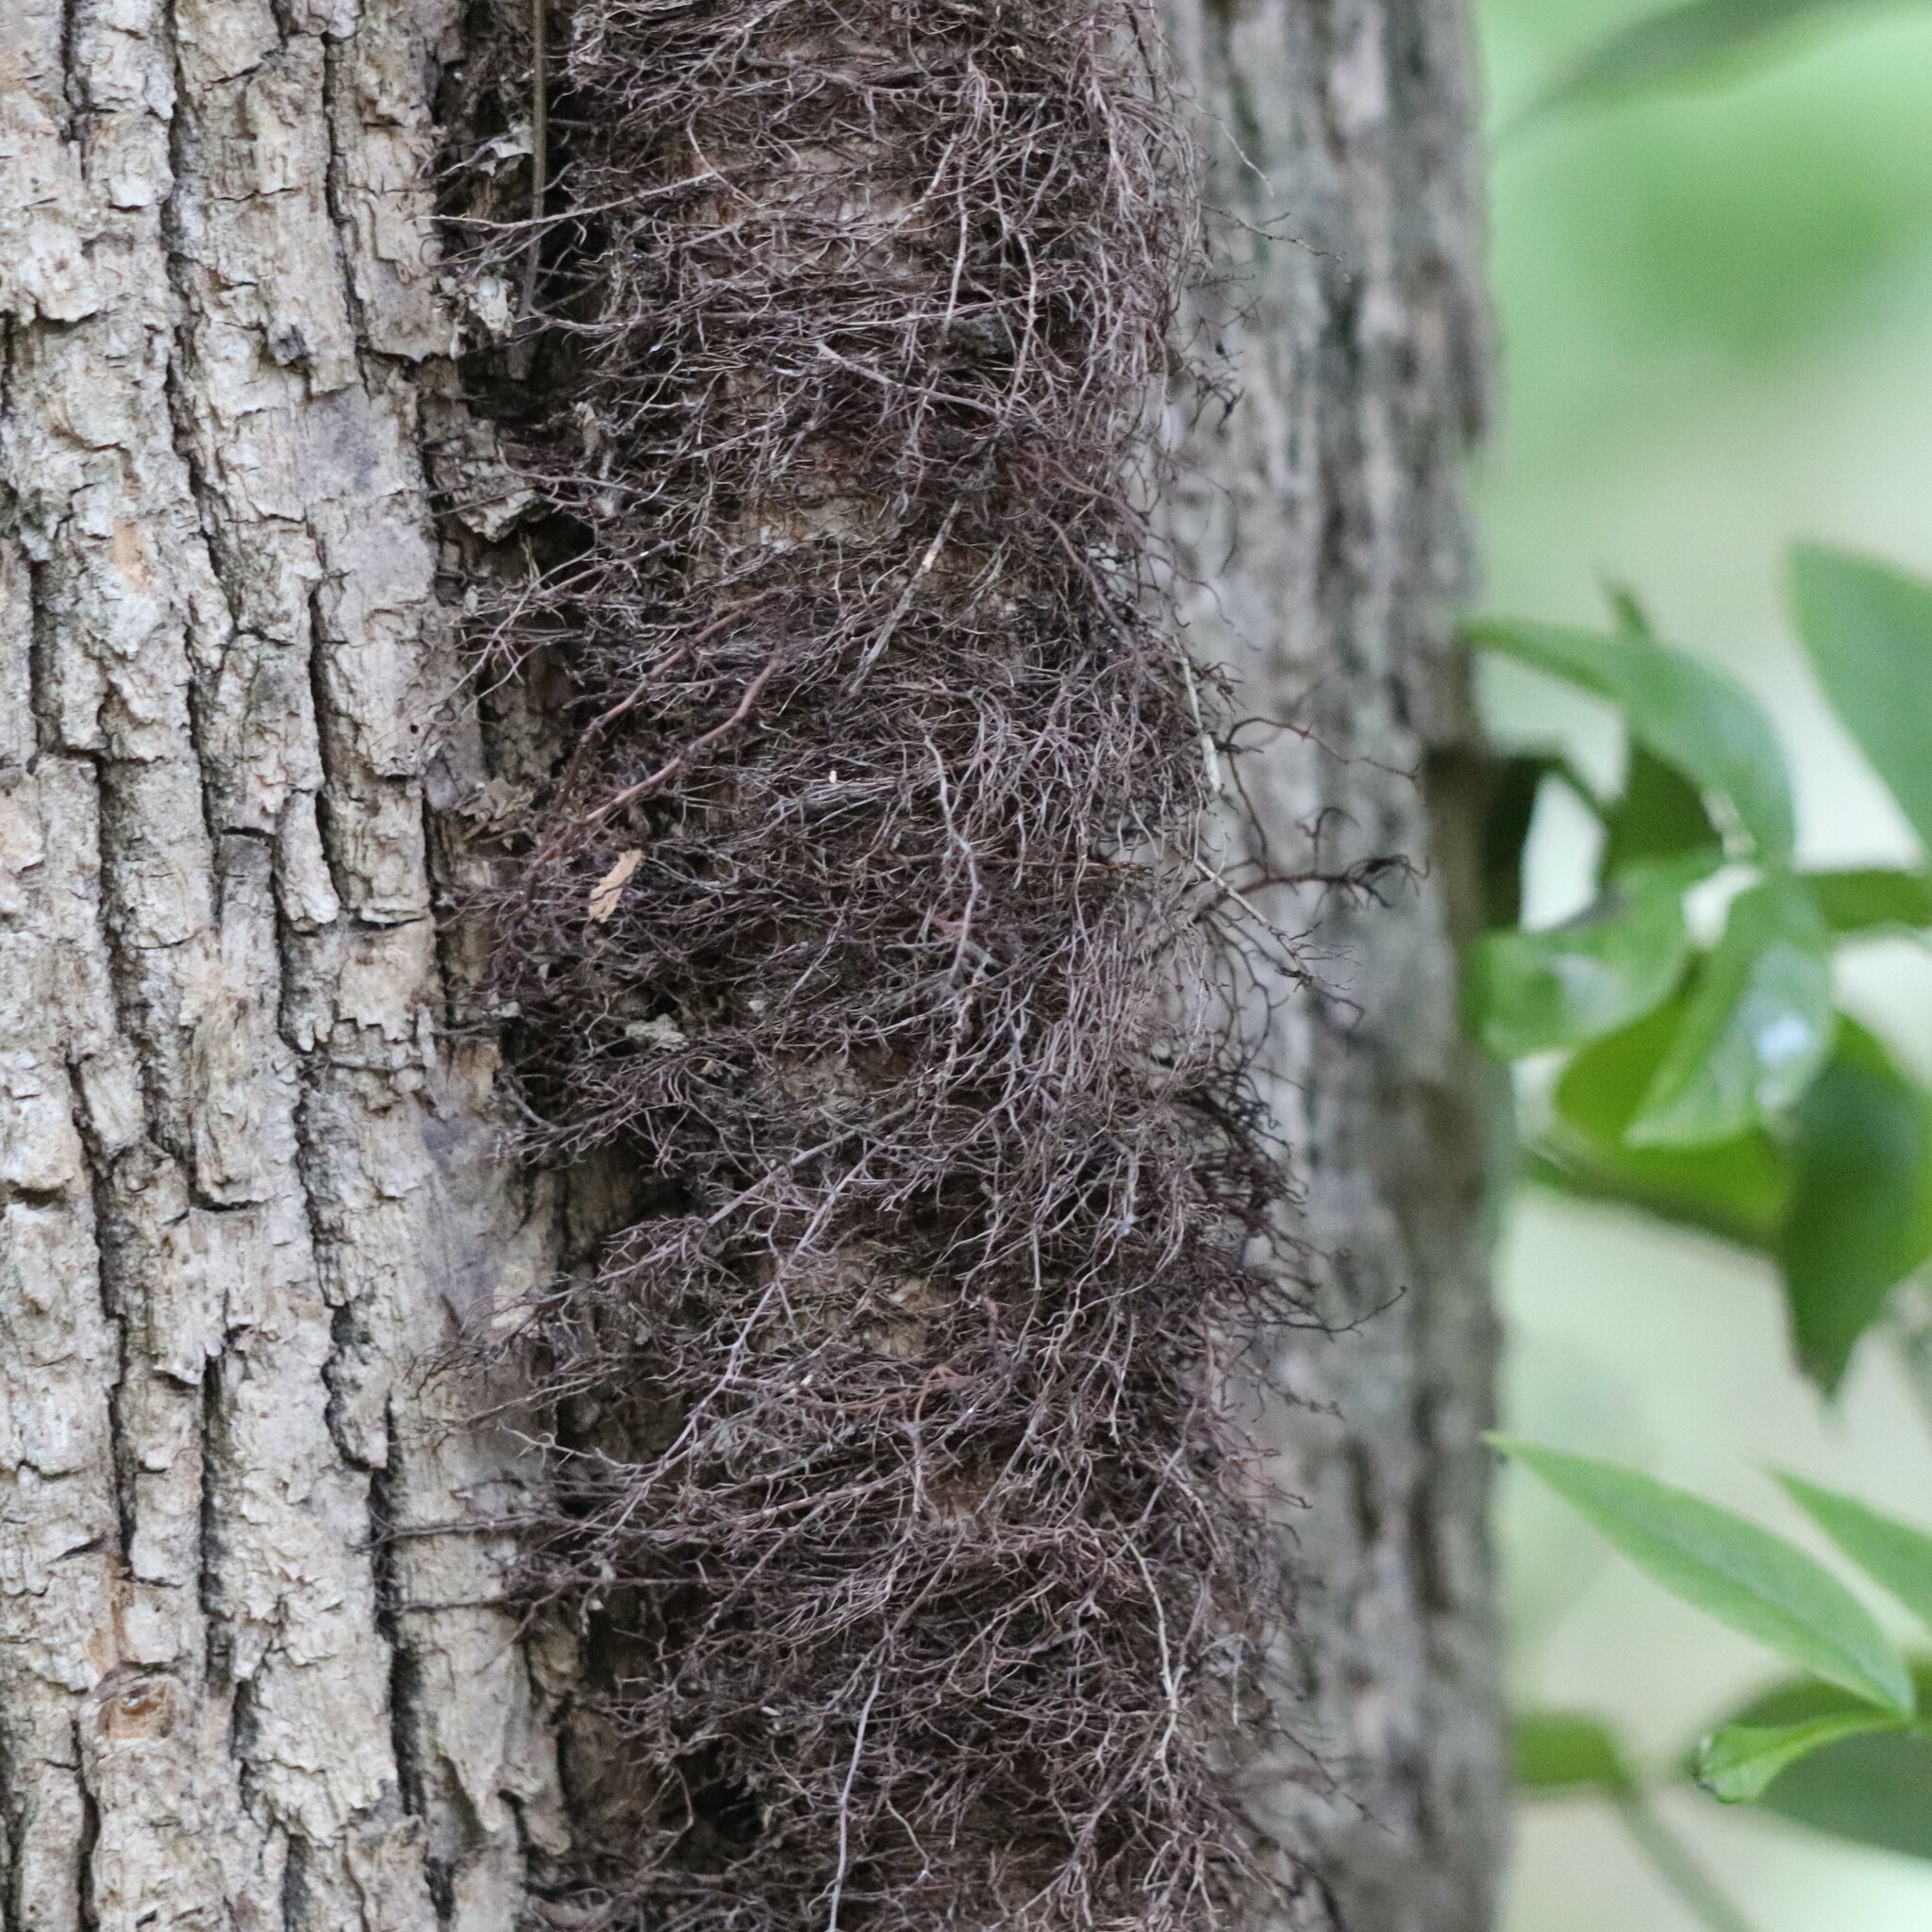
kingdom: Plantae
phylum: Tracheophyta
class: Magnoliopsida
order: Sapindales
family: Anacardiaceae
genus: Toxicodendron
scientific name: Toxicodendron radicans
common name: Poison ivy
